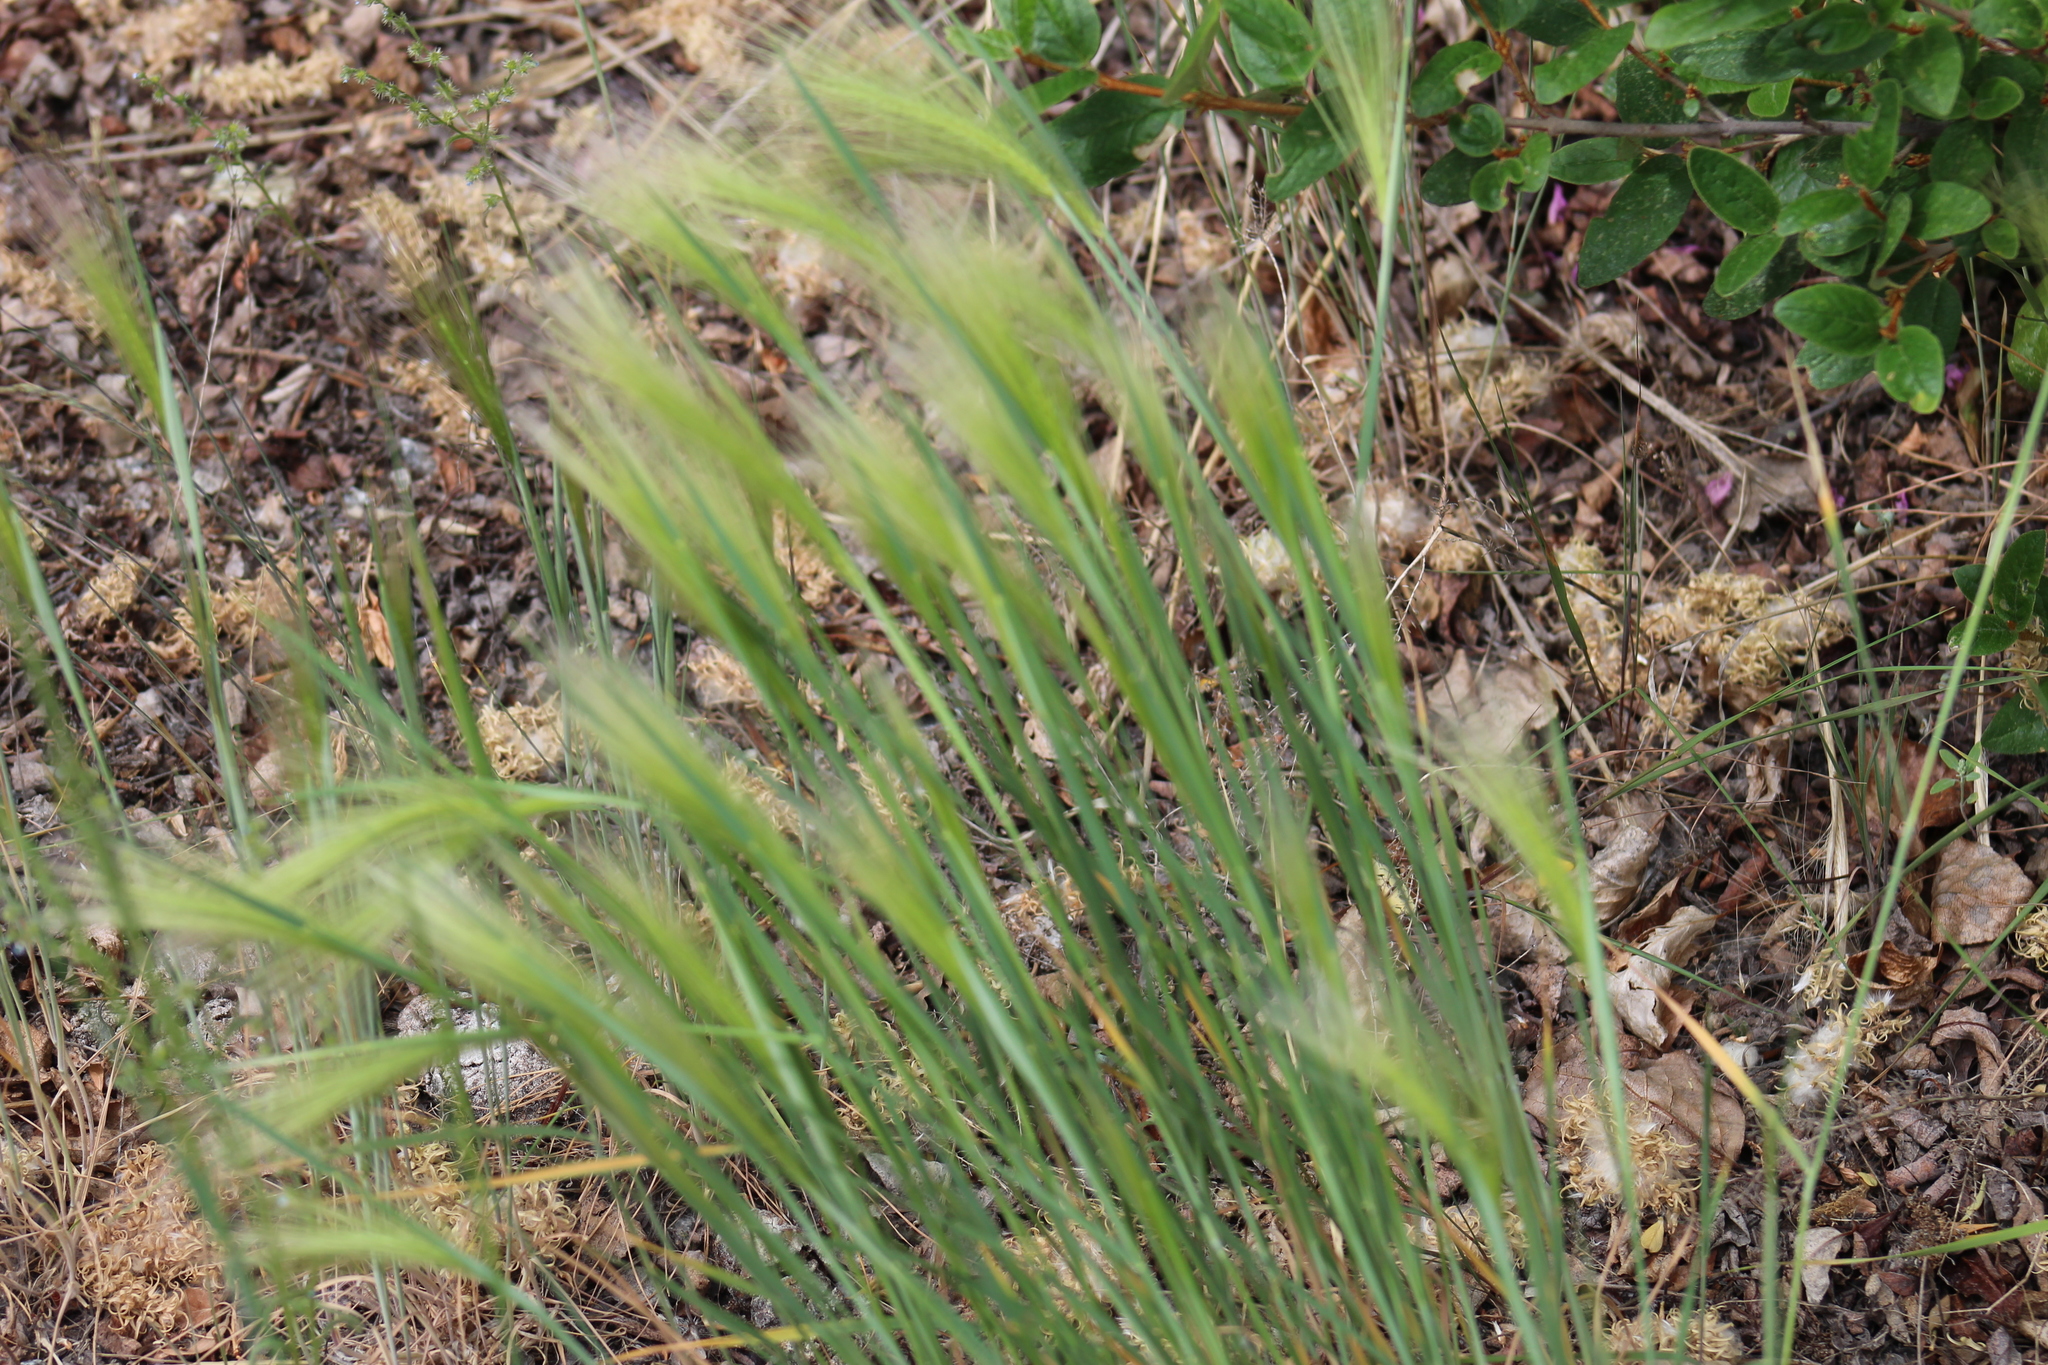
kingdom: Plantae
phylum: Tracheophyta
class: Liliopsida
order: Poales
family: Poaceae
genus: Hordeum
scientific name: Hordeum jubatum
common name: Foxtail barley
